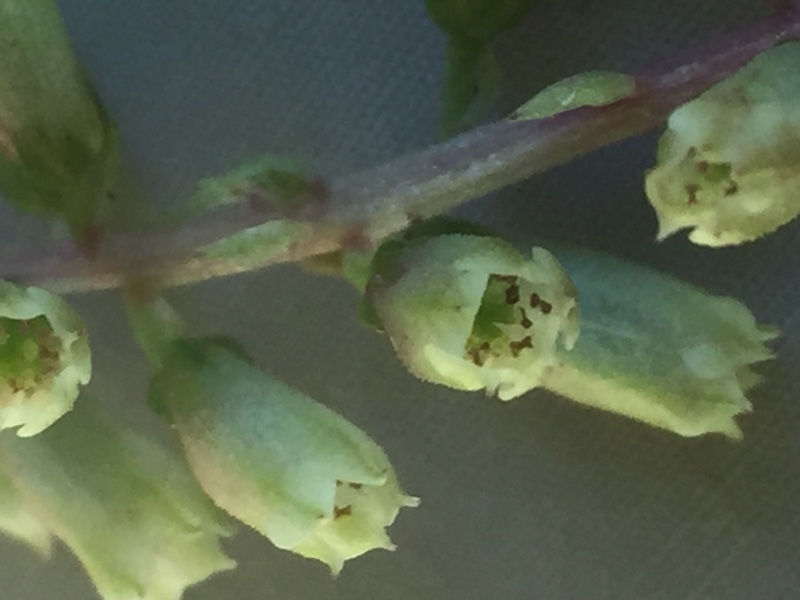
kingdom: Plantae
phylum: Tracheophyta
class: Magnoliopsida
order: Saxifragales
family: Crassulaceae
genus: Umbilicus
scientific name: Umbilicus rupestris
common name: Navelwort
